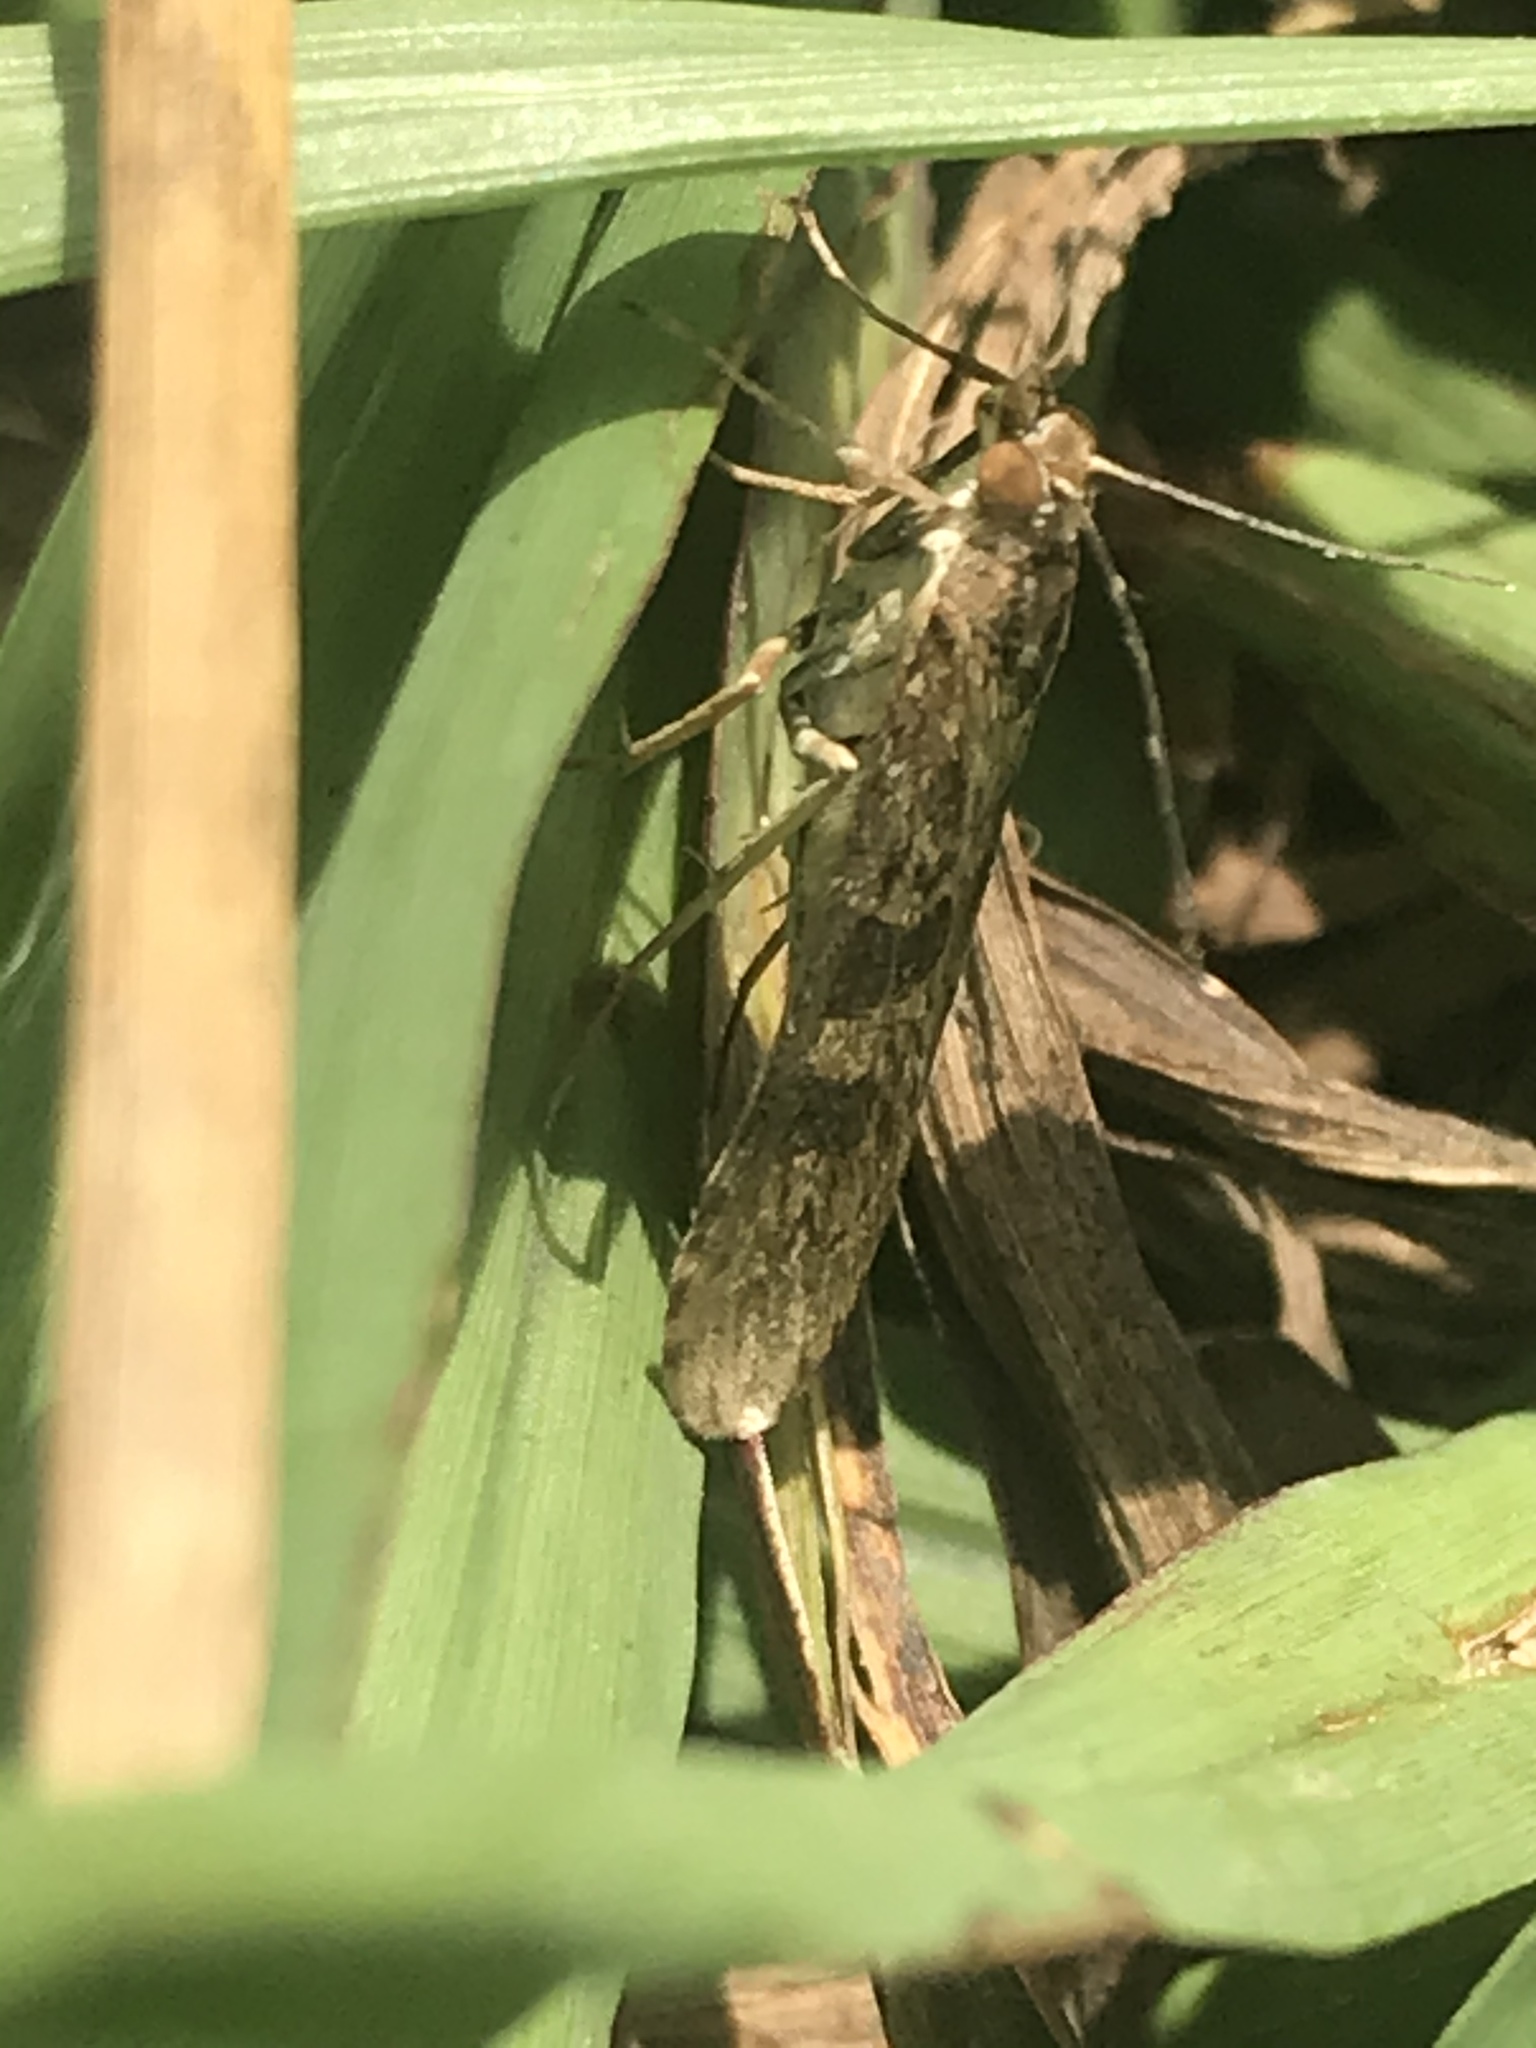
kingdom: Animalia
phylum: Arthropoda
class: Insecta
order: Lepidoptera
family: Crambidae
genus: Nomophila
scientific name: Nomophila nearctica
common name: American rush veneer
